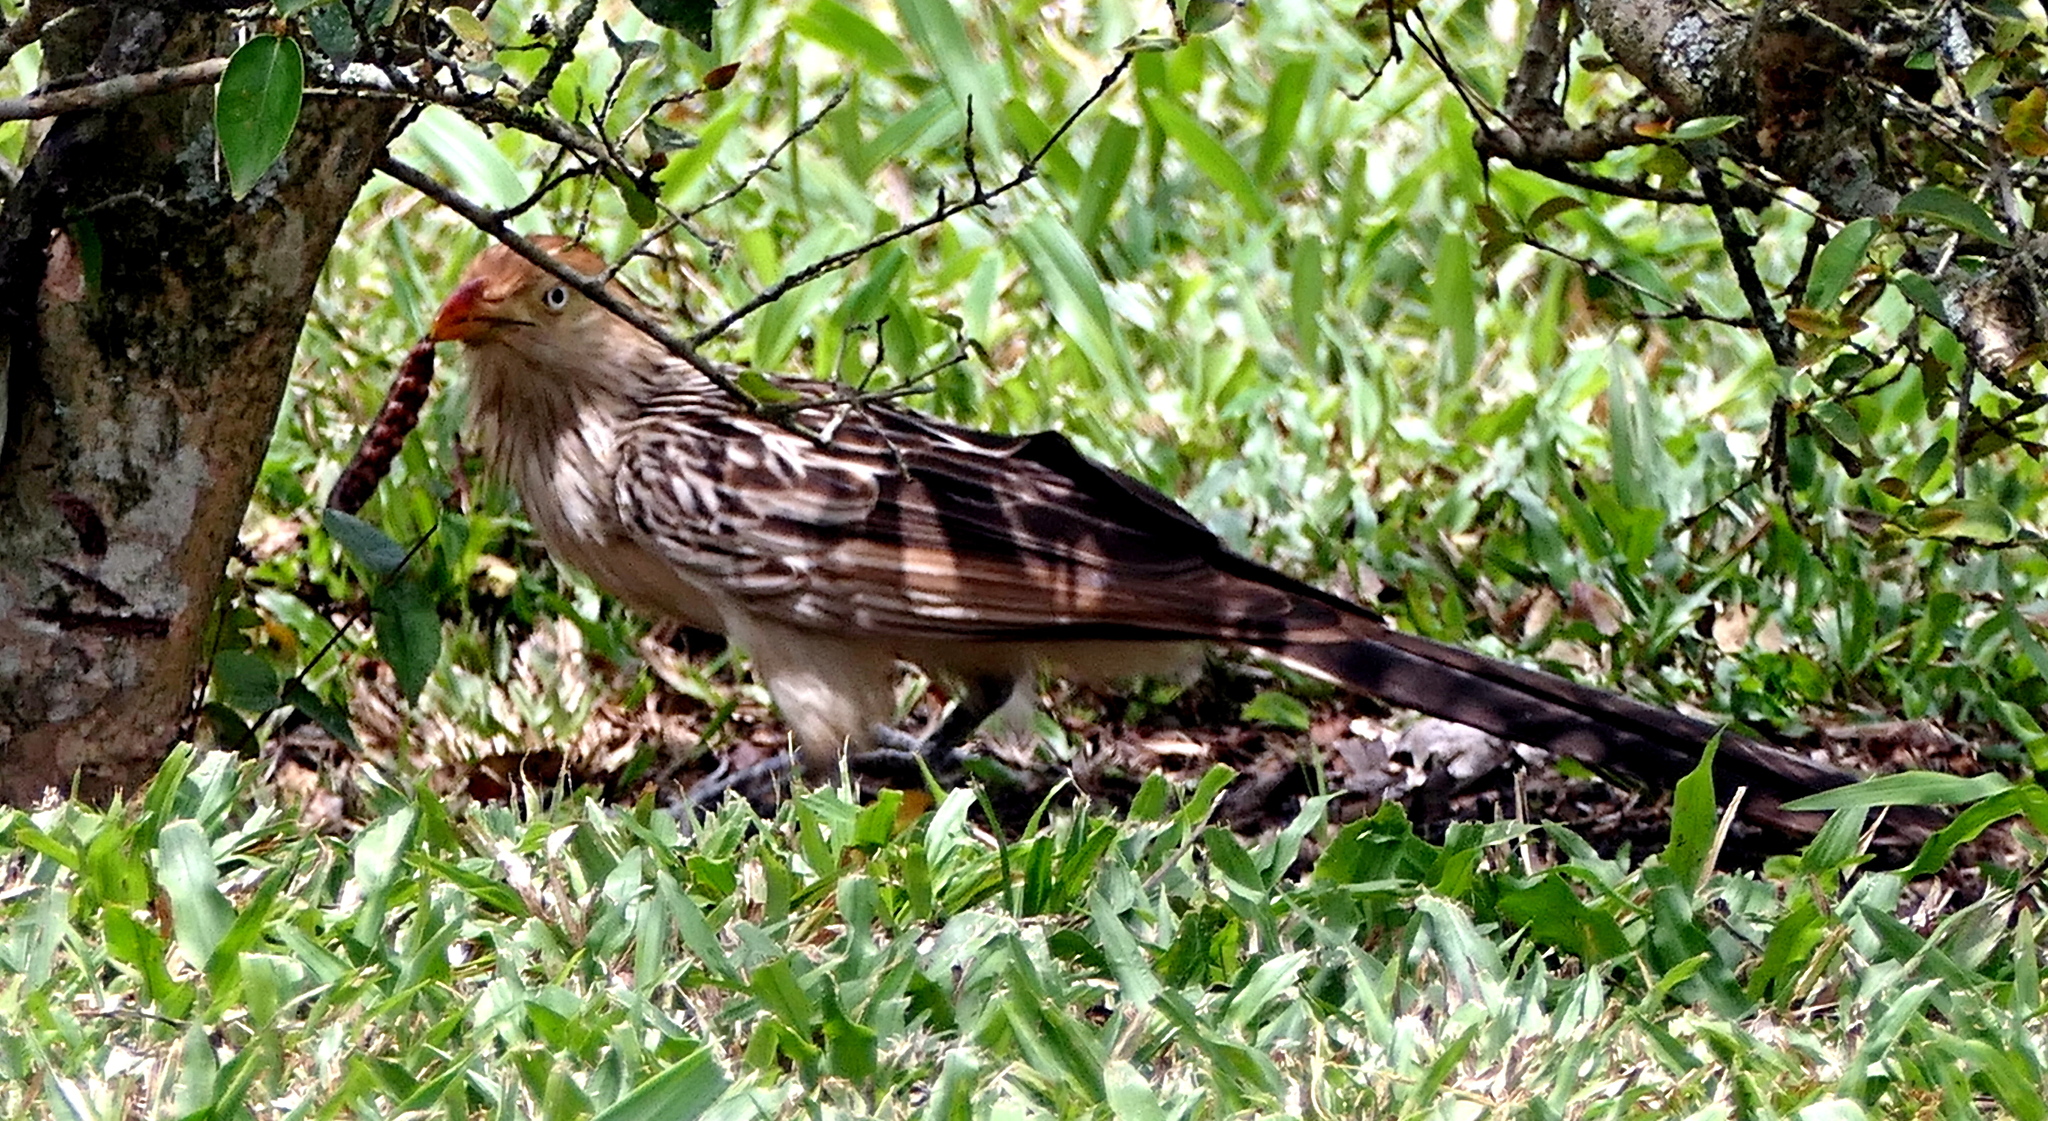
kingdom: Animalia
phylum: Chordata
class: Aves
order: Cuculiformes
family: Cuculidae
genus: Guira
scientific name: Guira guira
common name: Guira cuckoo
